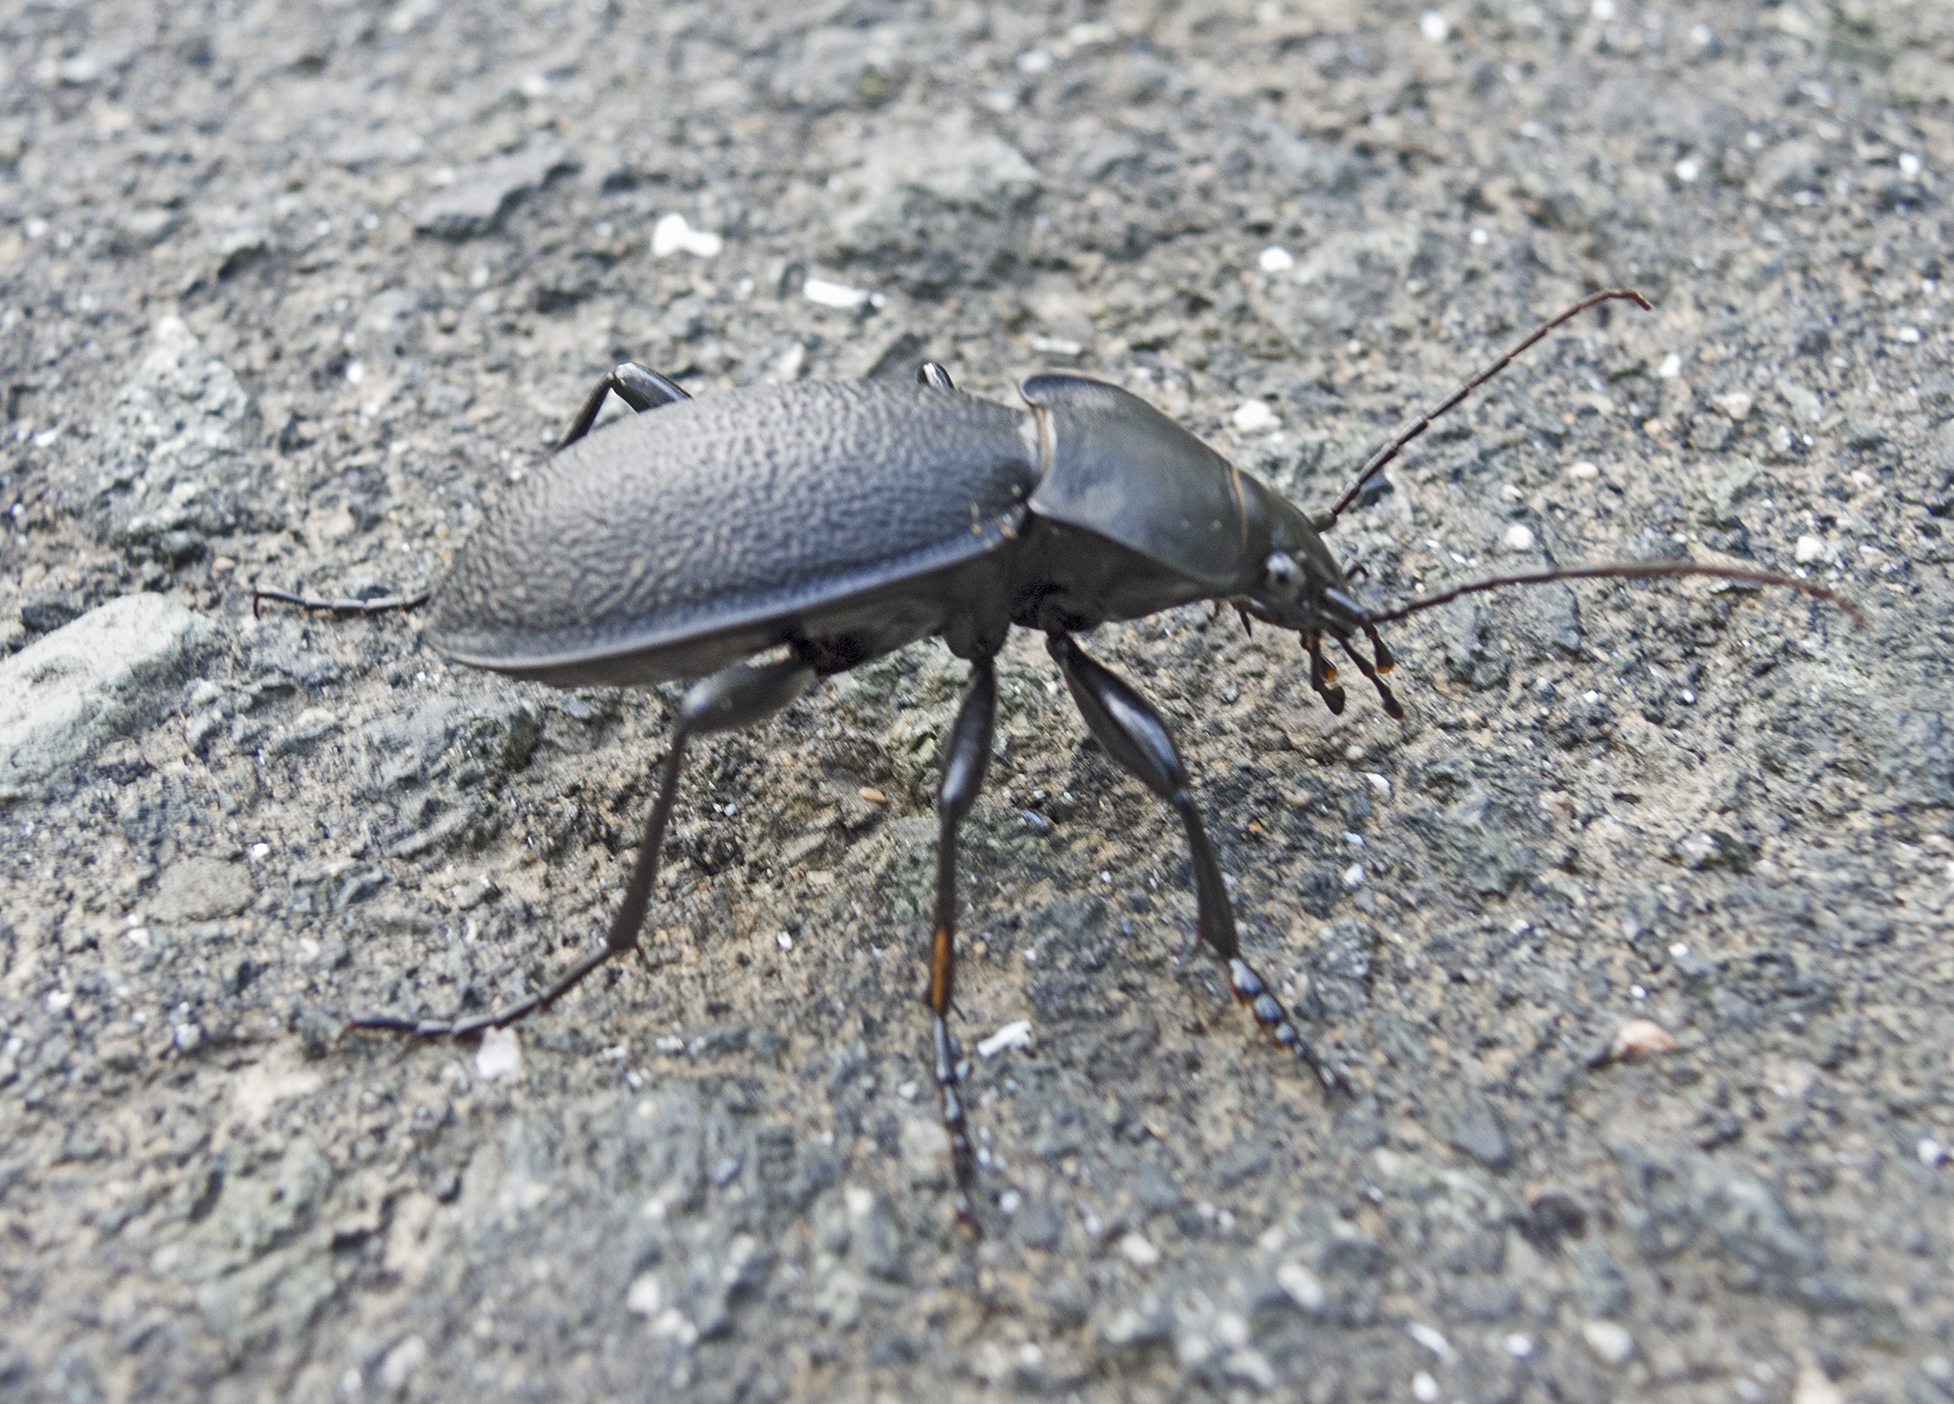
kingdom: Animalia
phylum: Arthropoda
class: Insecta
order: Coleoptera
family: Carabidae
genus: Carabus
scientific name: Carabus coriaceus
